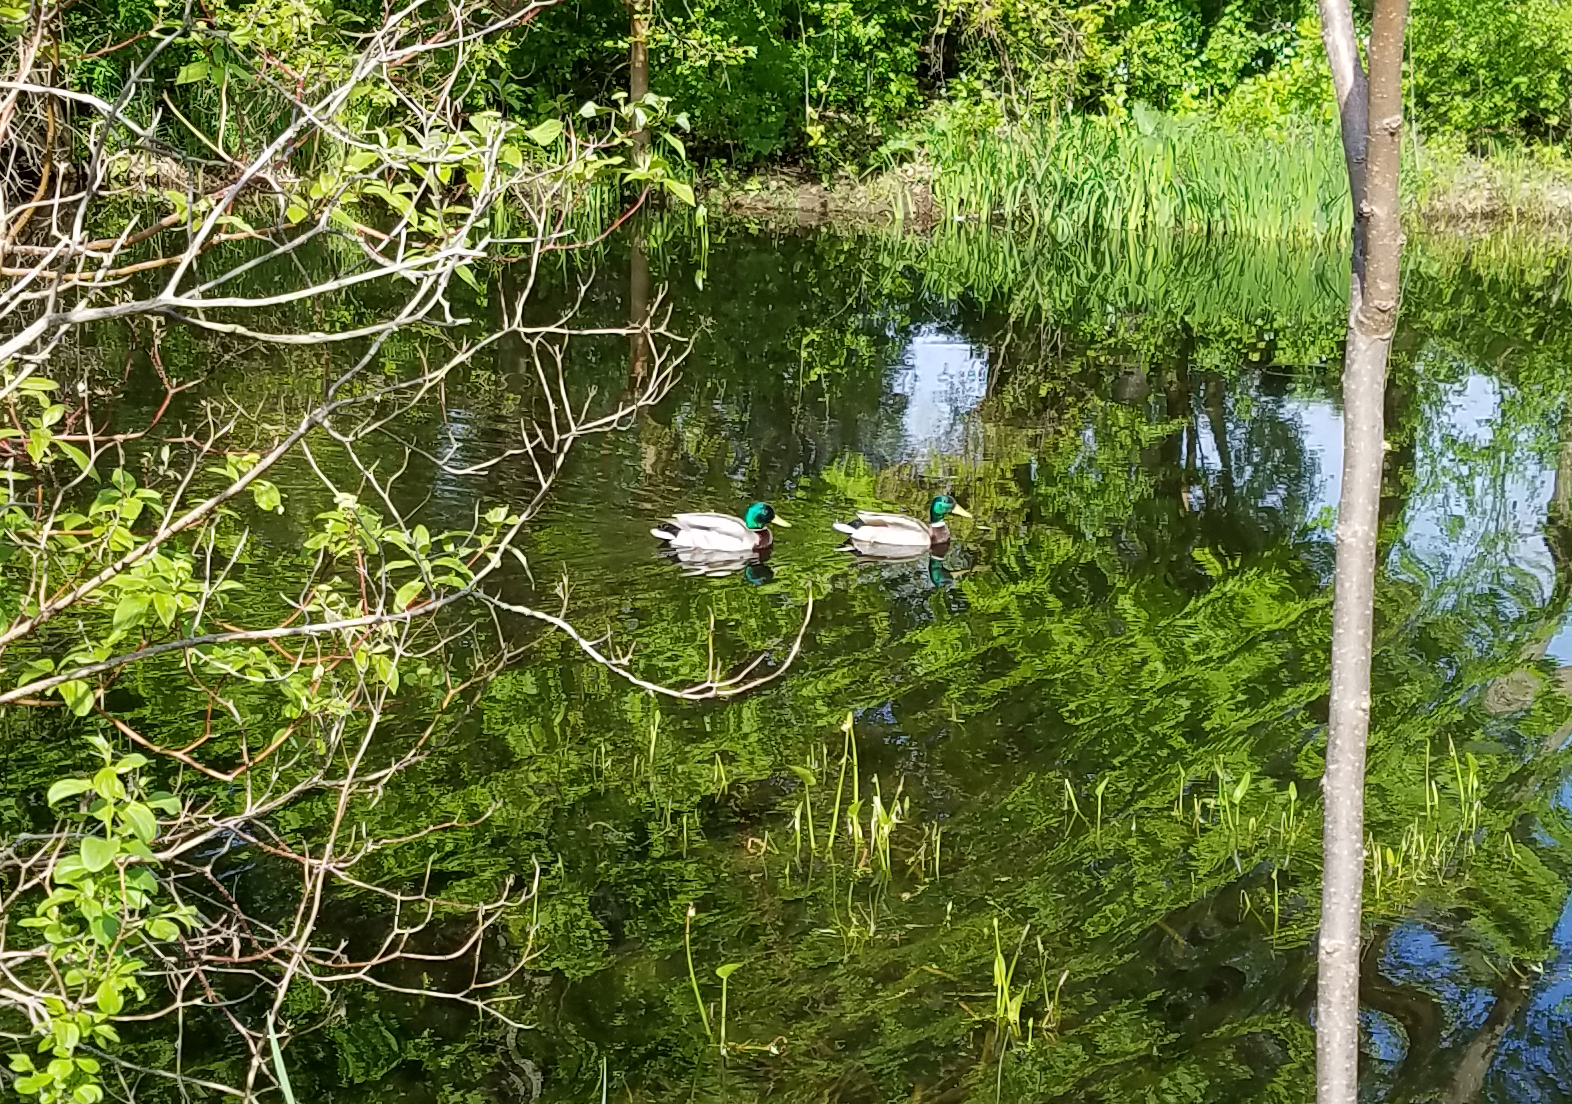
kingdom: Animalia
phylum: Chordata
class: Aves
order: Anseriformes
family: Anatidae
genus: Anas
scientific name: Anas platyrhynchos
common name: Mallard
